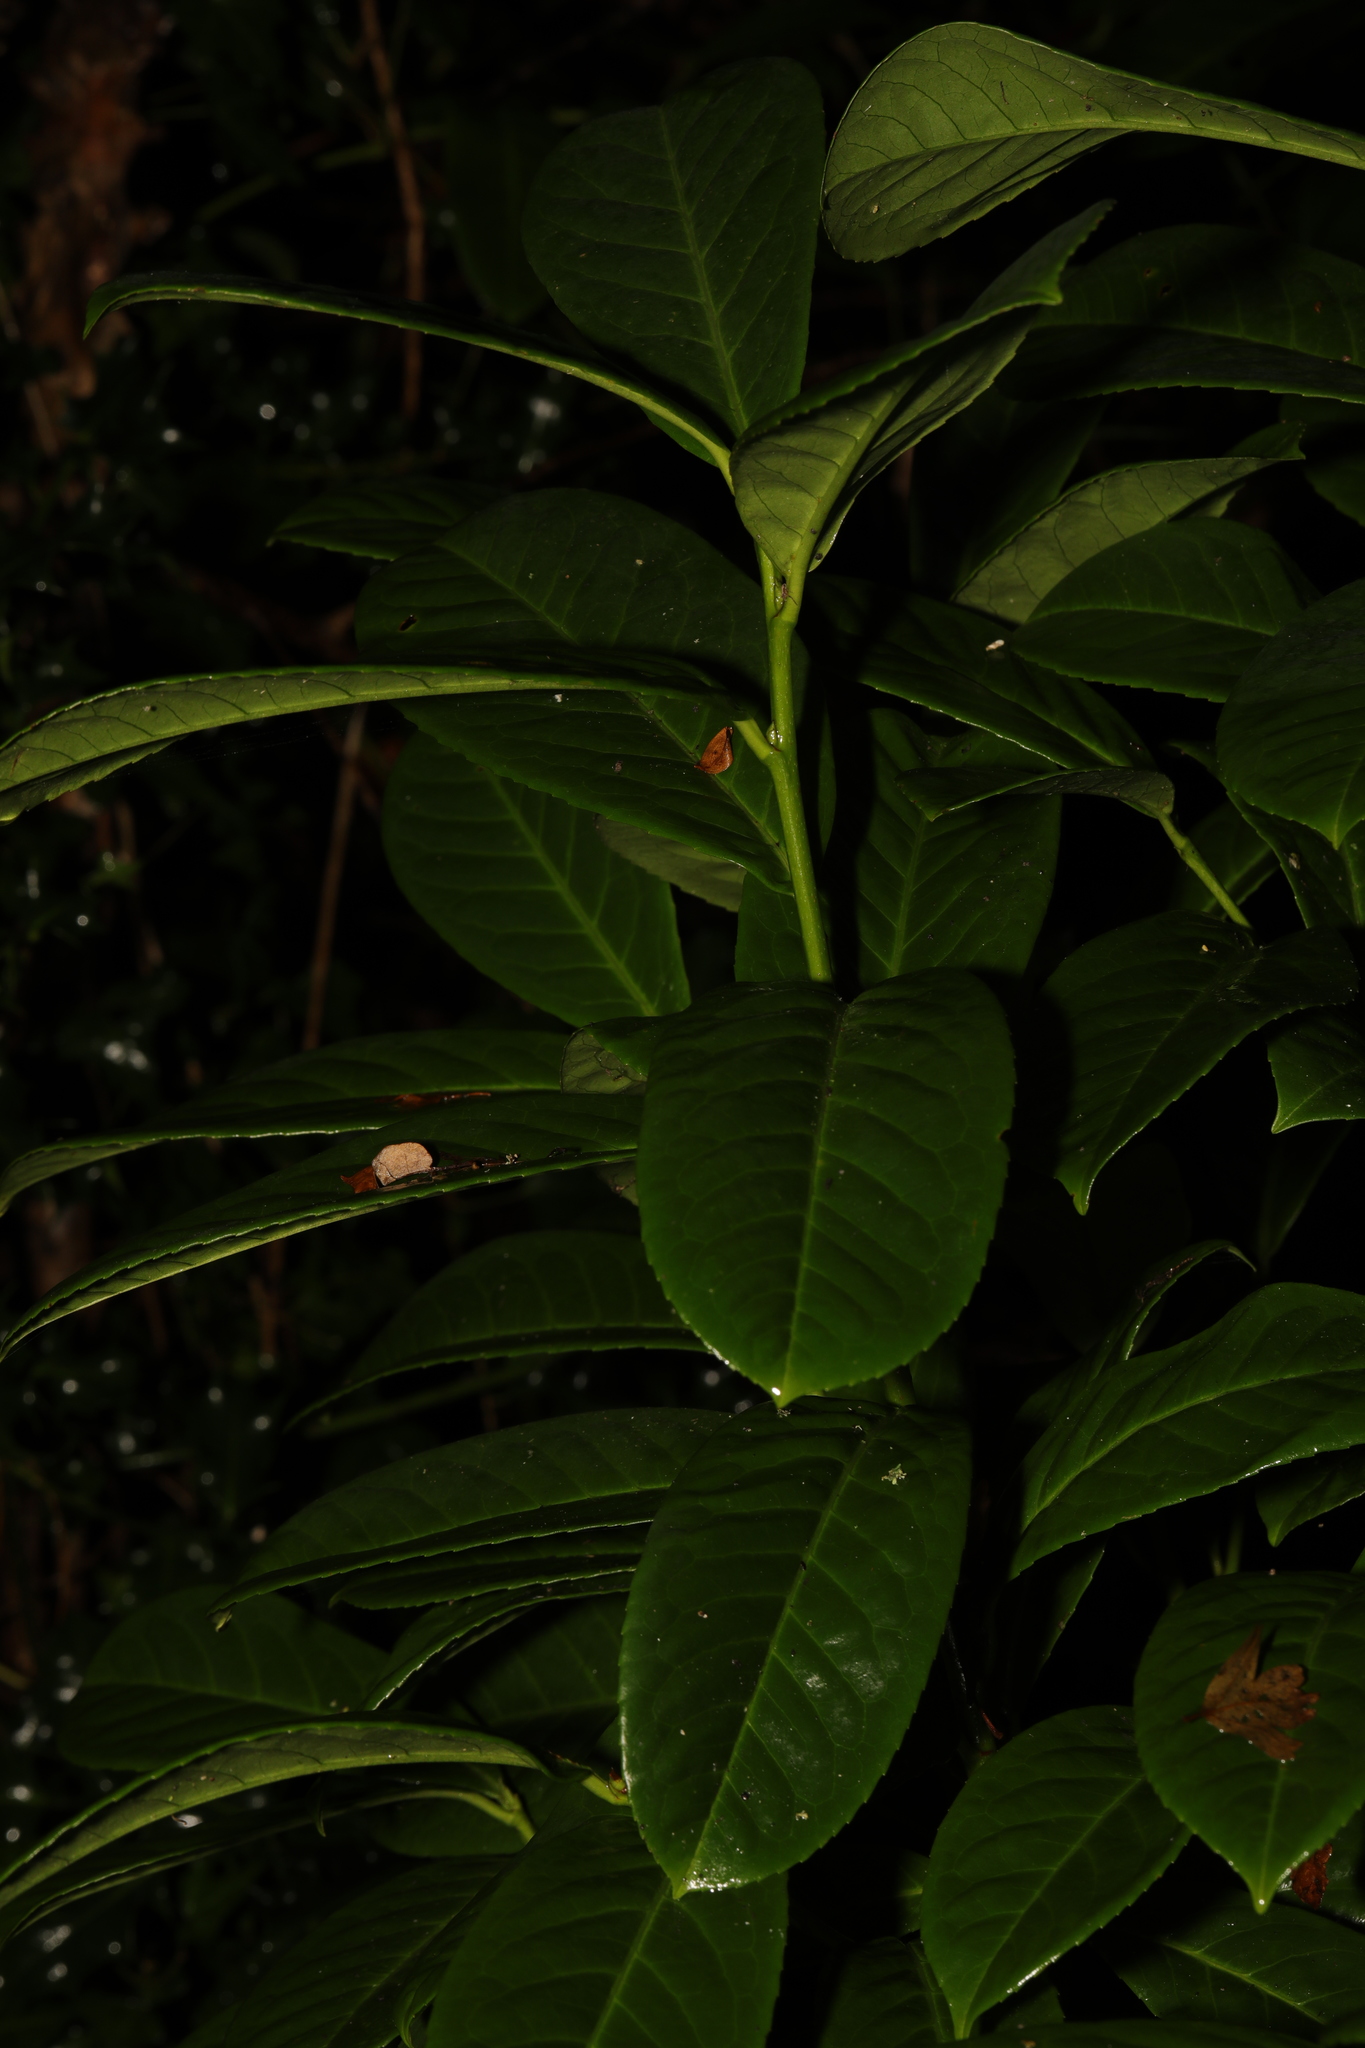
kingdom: Plantae
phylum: Tracheophyta
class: Magnoliopsida
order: Rosales
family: Rosaceae
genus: Prunus
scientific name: Prunus laurocerasus
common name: Cherry laurel
